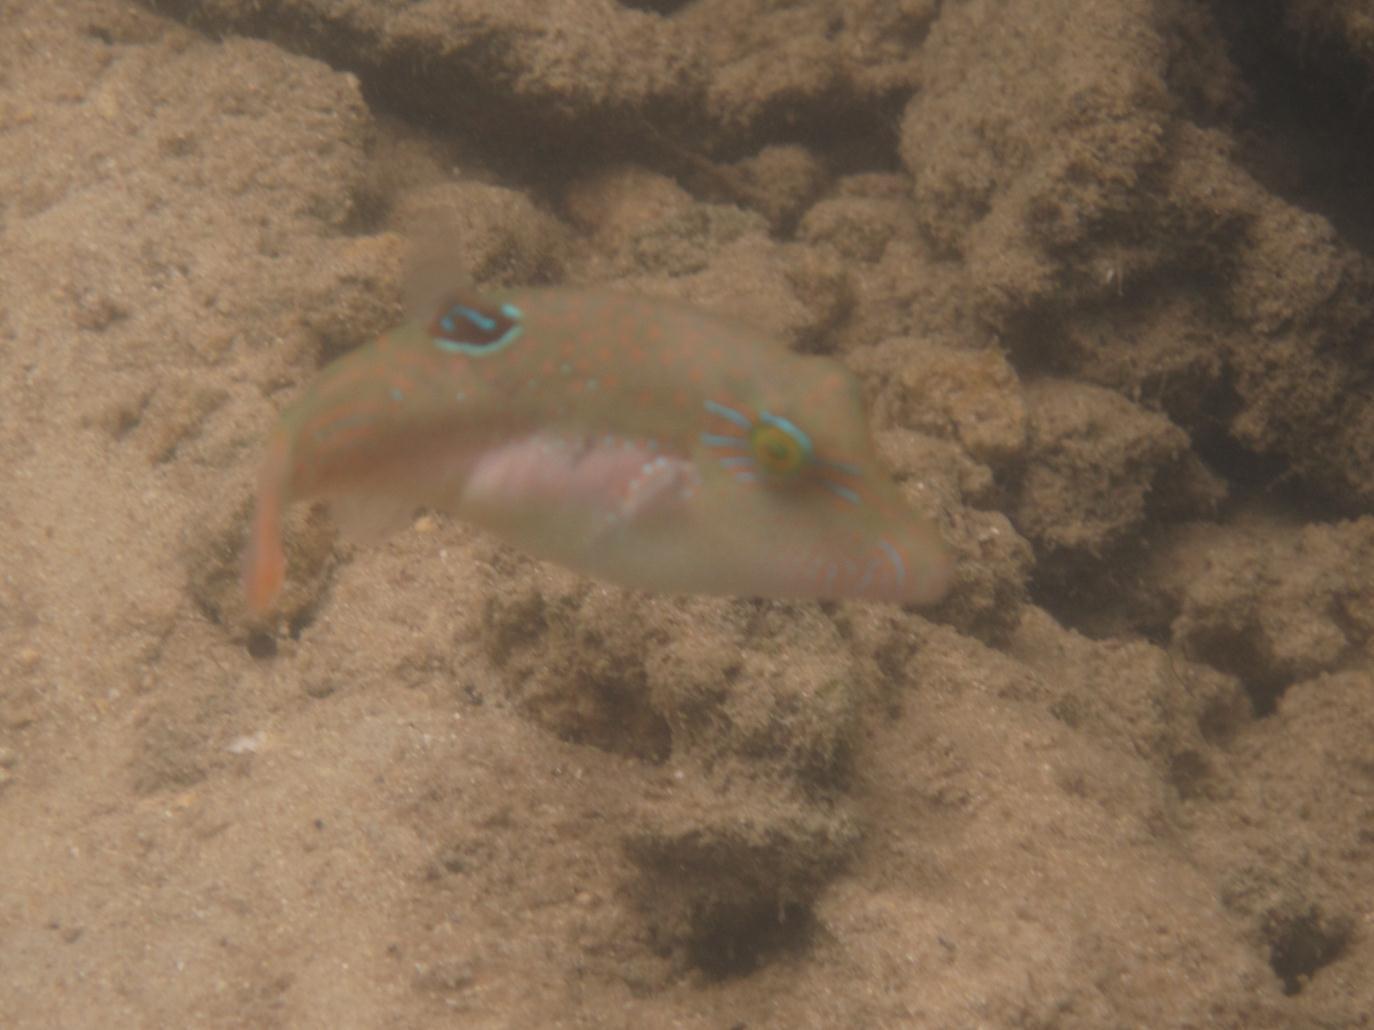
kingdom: Animalia
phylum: Chordata
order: Tetraodontiformes
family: Tetraodontidae
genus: Canthigaster
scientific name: Canthigaster bennetti
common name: Bennett's pufferfish
